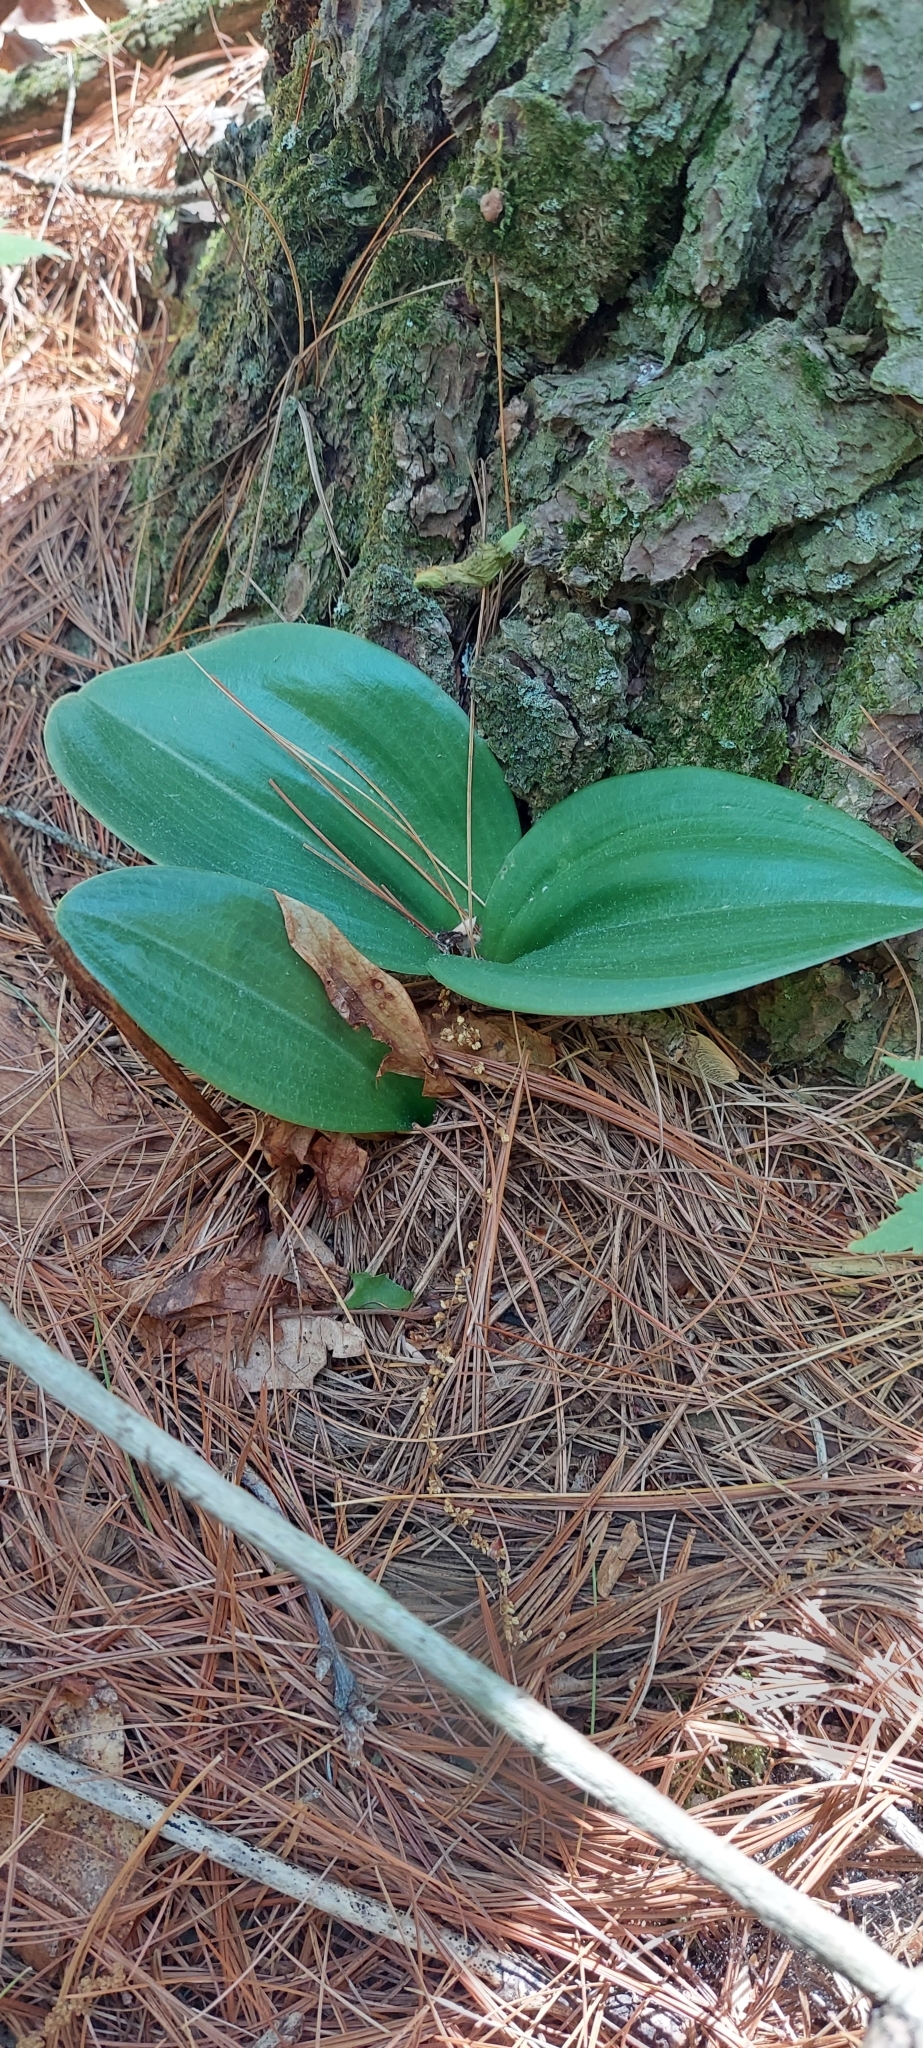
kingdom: Plantae
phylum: Tracheophyta
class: Liliopsida
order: Asparagales
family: Orchidaceae
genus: Cypripedium
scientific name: Cypripedium acaule
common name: Pink lady's-slipper
